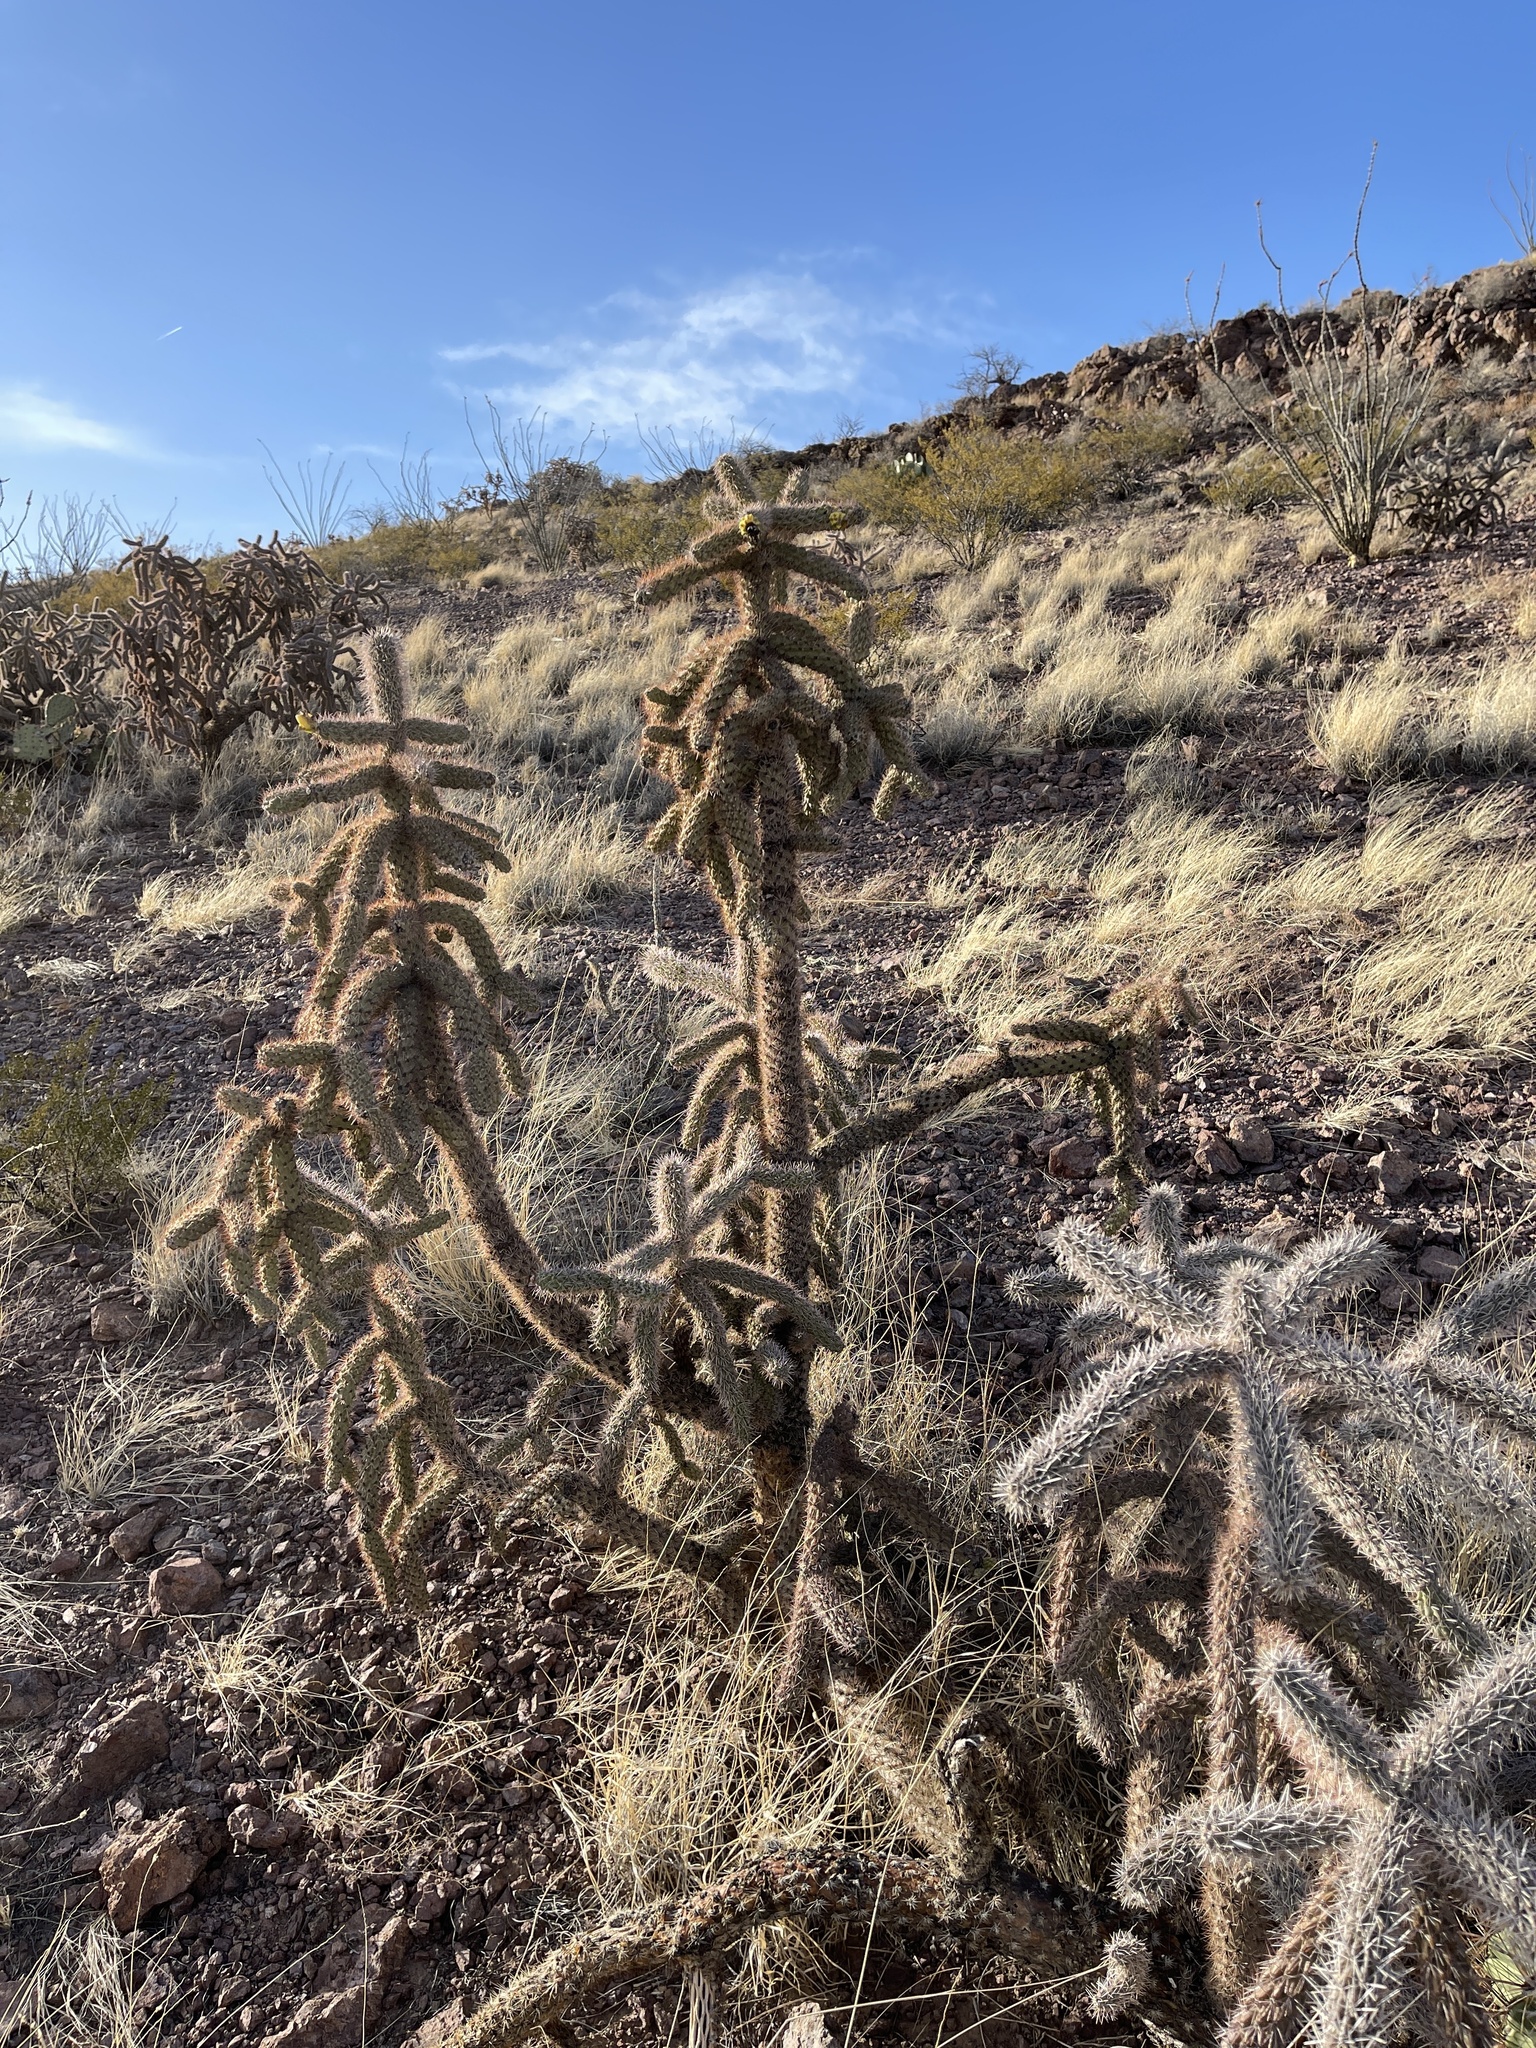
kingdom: Plantae
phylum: Tracheophyta
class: Magnoliopsida
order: Caryophyllales
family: Cactaceae
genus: Cylindropuntia
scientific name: Cylindropuntia imbricata
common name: Candelabrum cactus
